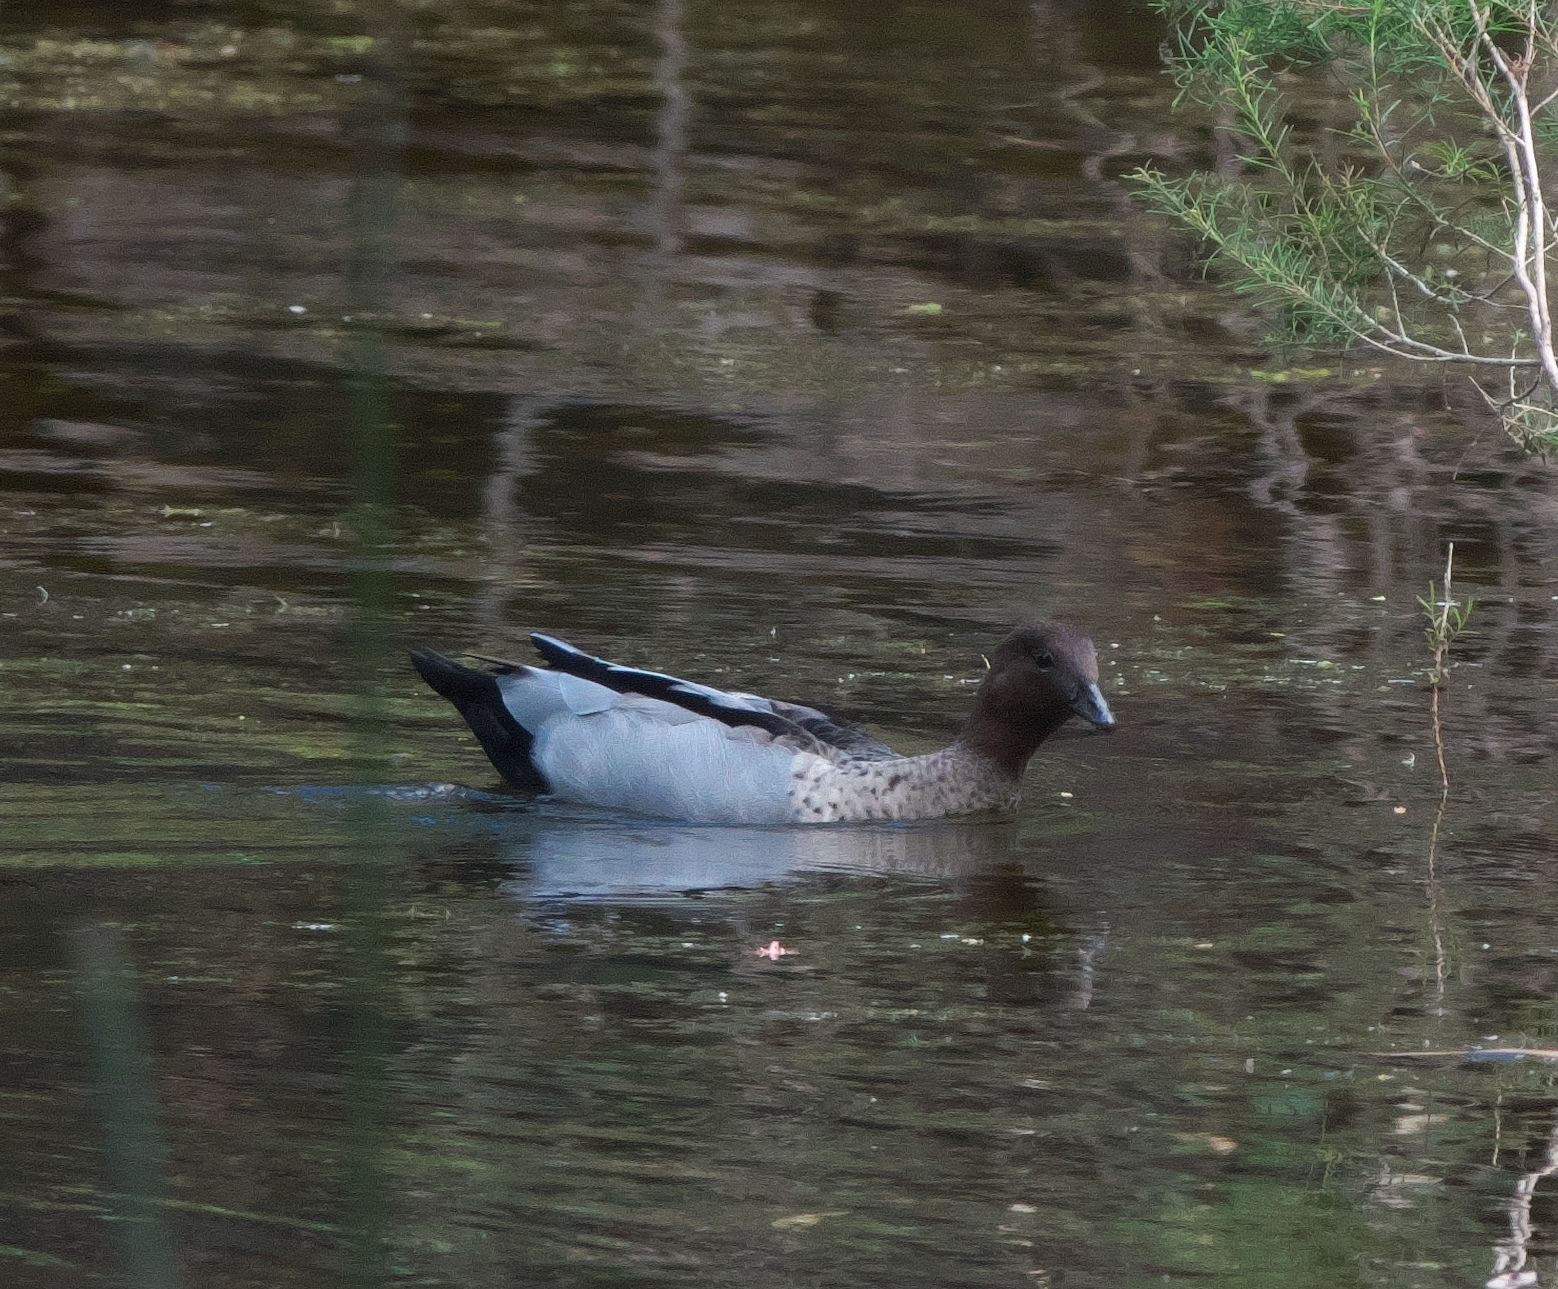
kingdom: Animalia
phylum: Chordata
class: Aves
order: Anseriformes
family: Anatidae
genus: Chenonetta
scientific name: Chenonetta jubata
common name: Maned duck
